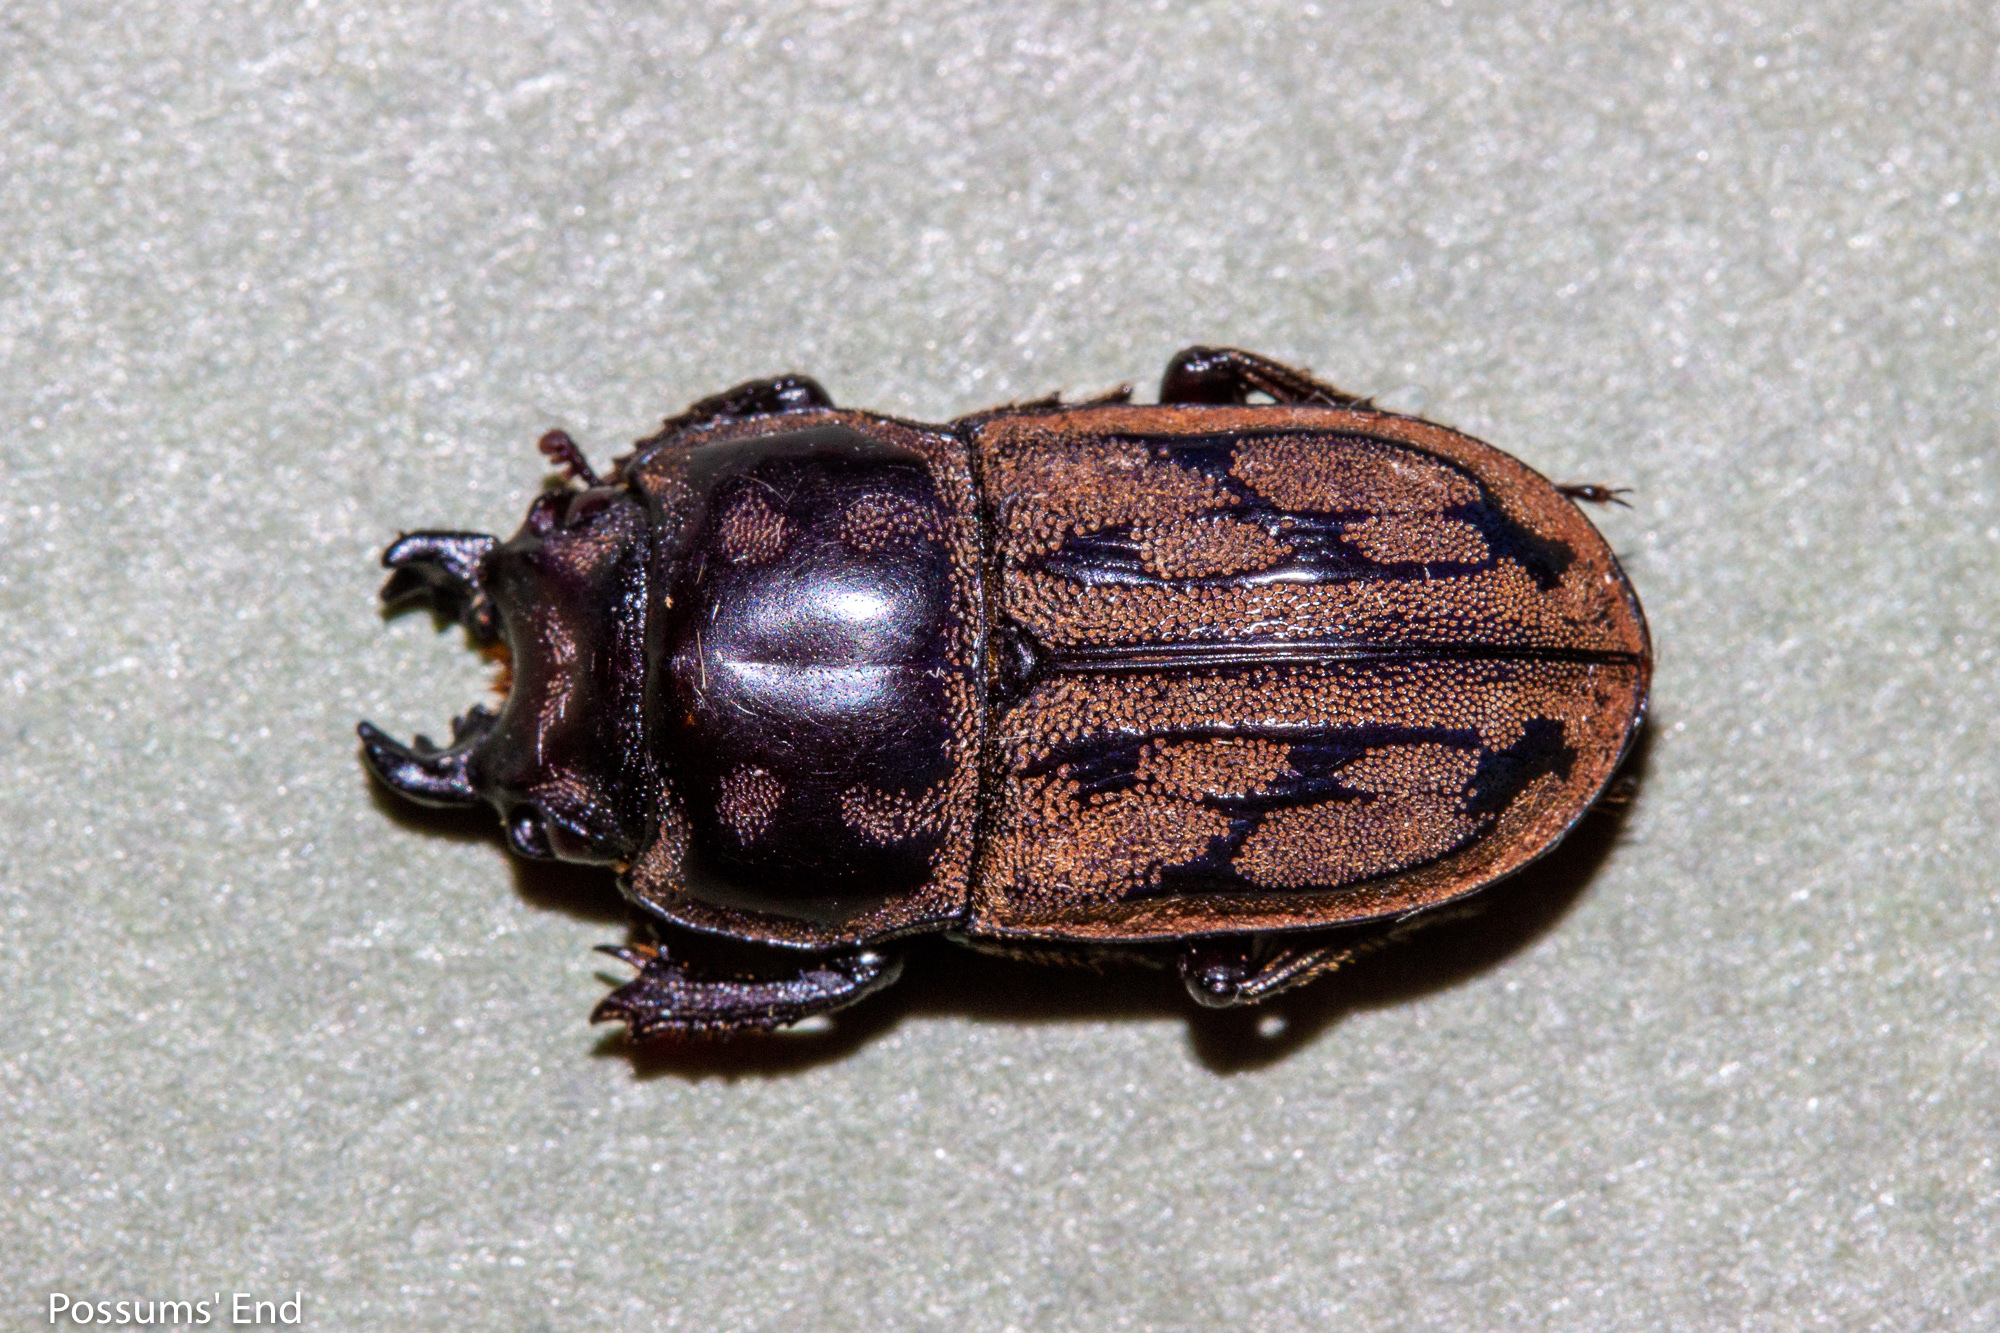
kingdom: Animalia
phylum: Arthropoda
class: Insecta
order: Coleoptera
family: Lucanidae
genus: Paralissotes
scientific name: Paralissotes reticulatus
